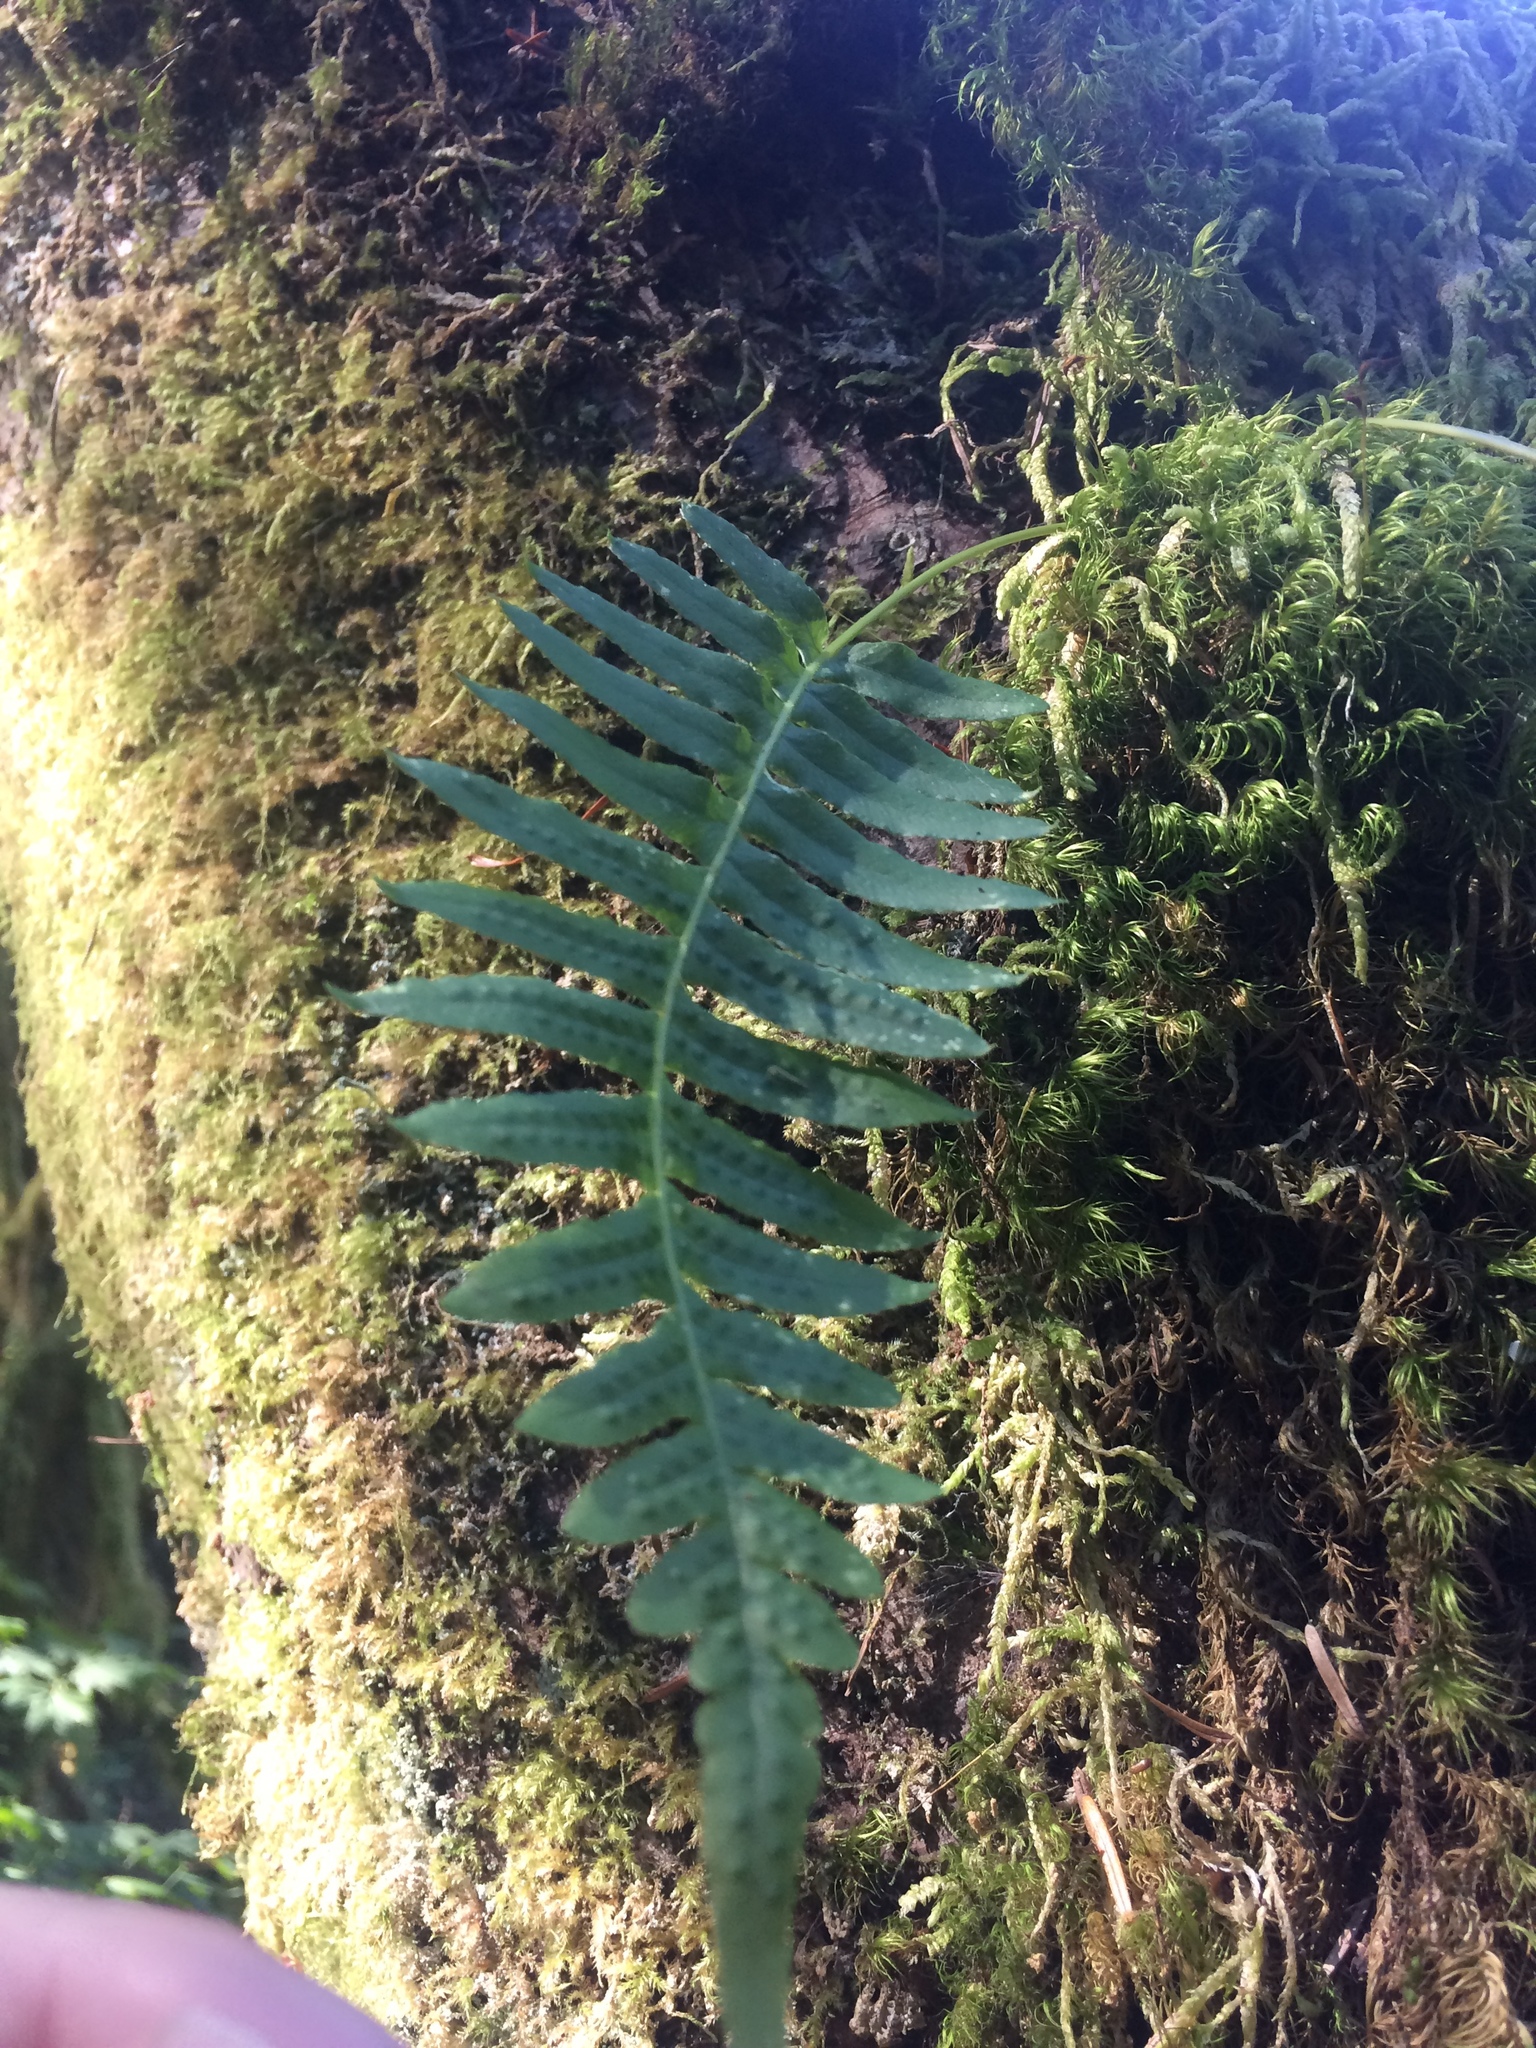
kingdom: Plantae
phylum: Tracheophyta
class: Polypodiopsida
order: Polypodiales
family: Polypodiaceae
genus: Polypodium
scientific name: Polypodium glycyrrhiza
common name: Licorice fern
